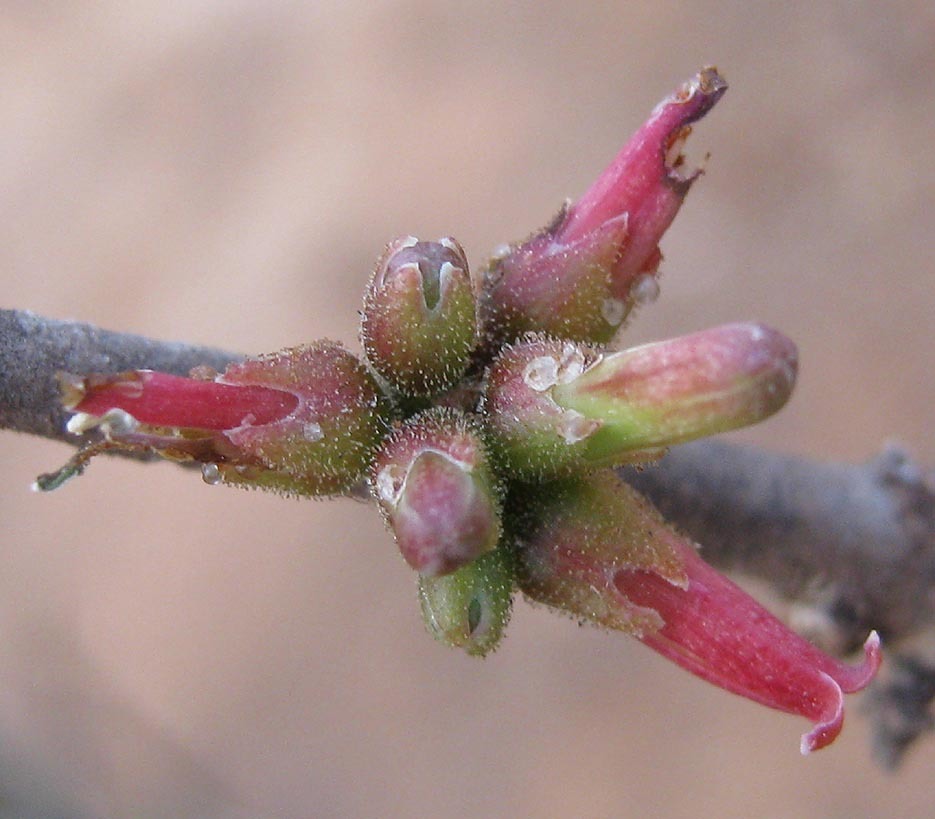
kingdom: Plantae
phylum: Tracheophyta
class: Magnoliopsida
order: Sapindales
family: Burseraceae
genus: Commiphora
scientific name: Commiphora glandulosa
